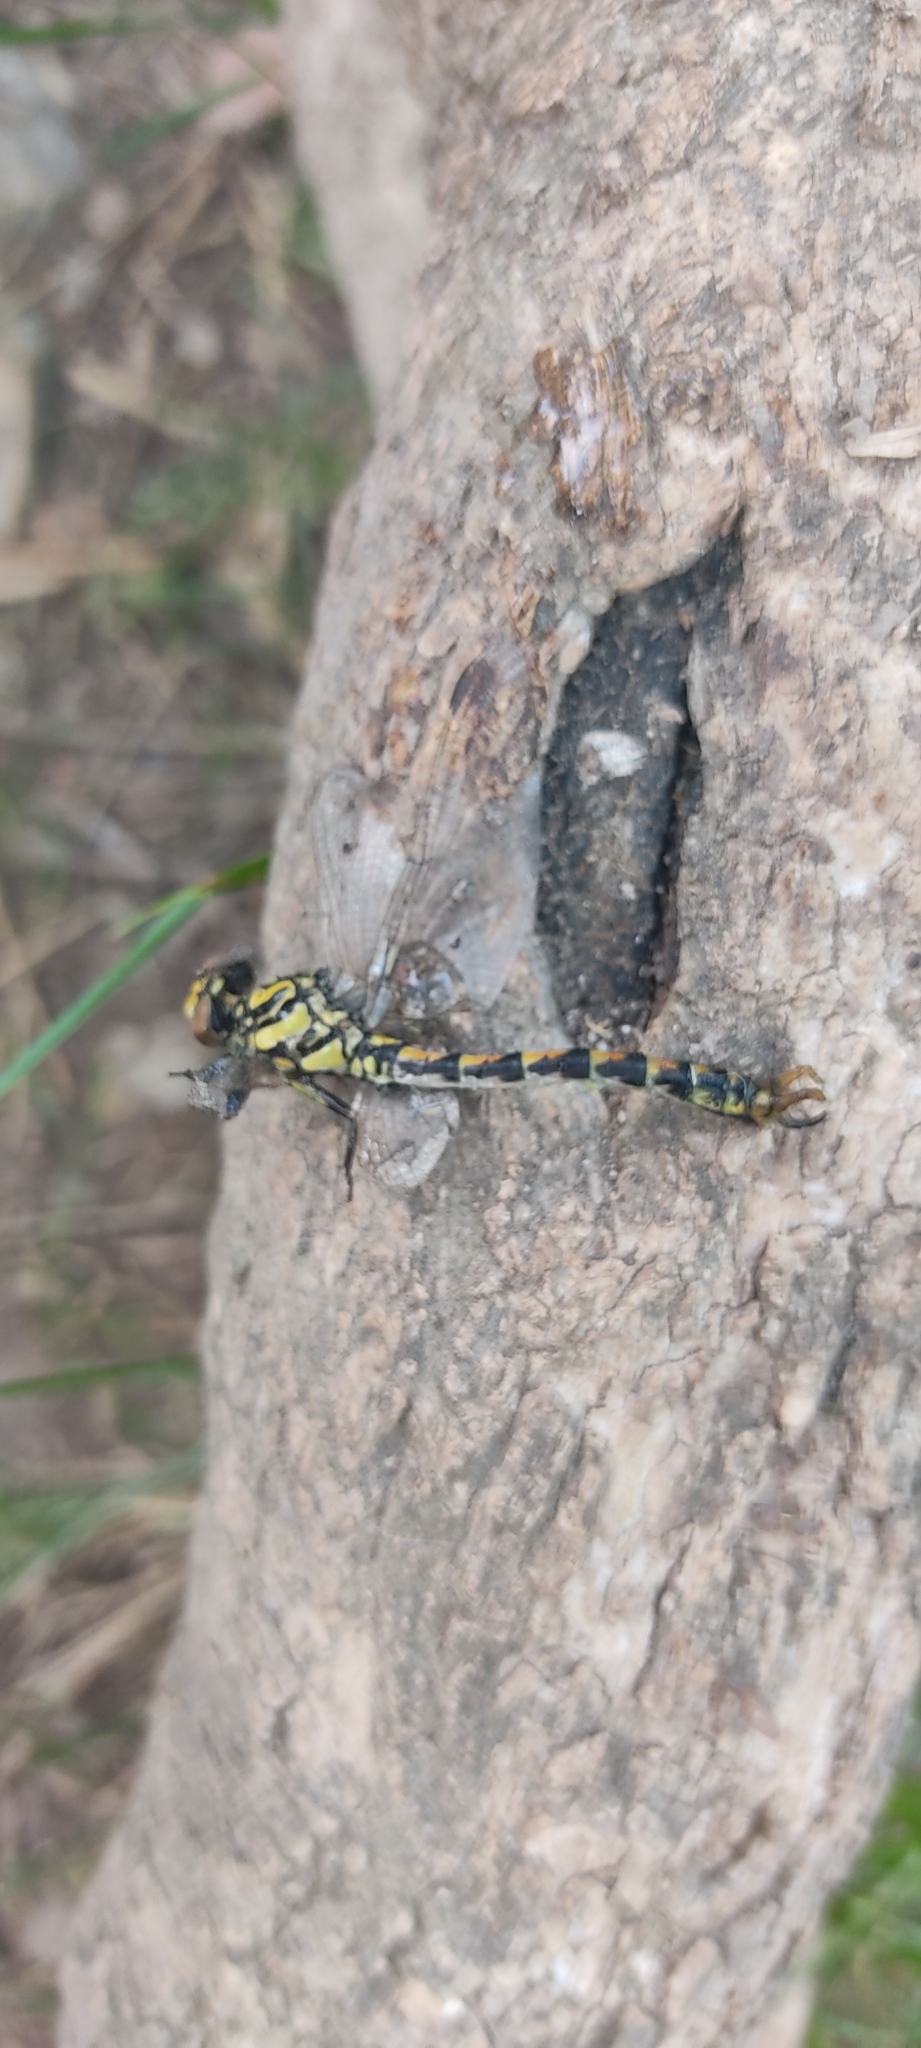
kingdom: Animalia
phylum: Arthropoda
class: Insecta
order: Odonata
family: Gomphidae
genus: Onychogomphus
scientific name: Onychogomphus uncatus
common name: Large pincertail
